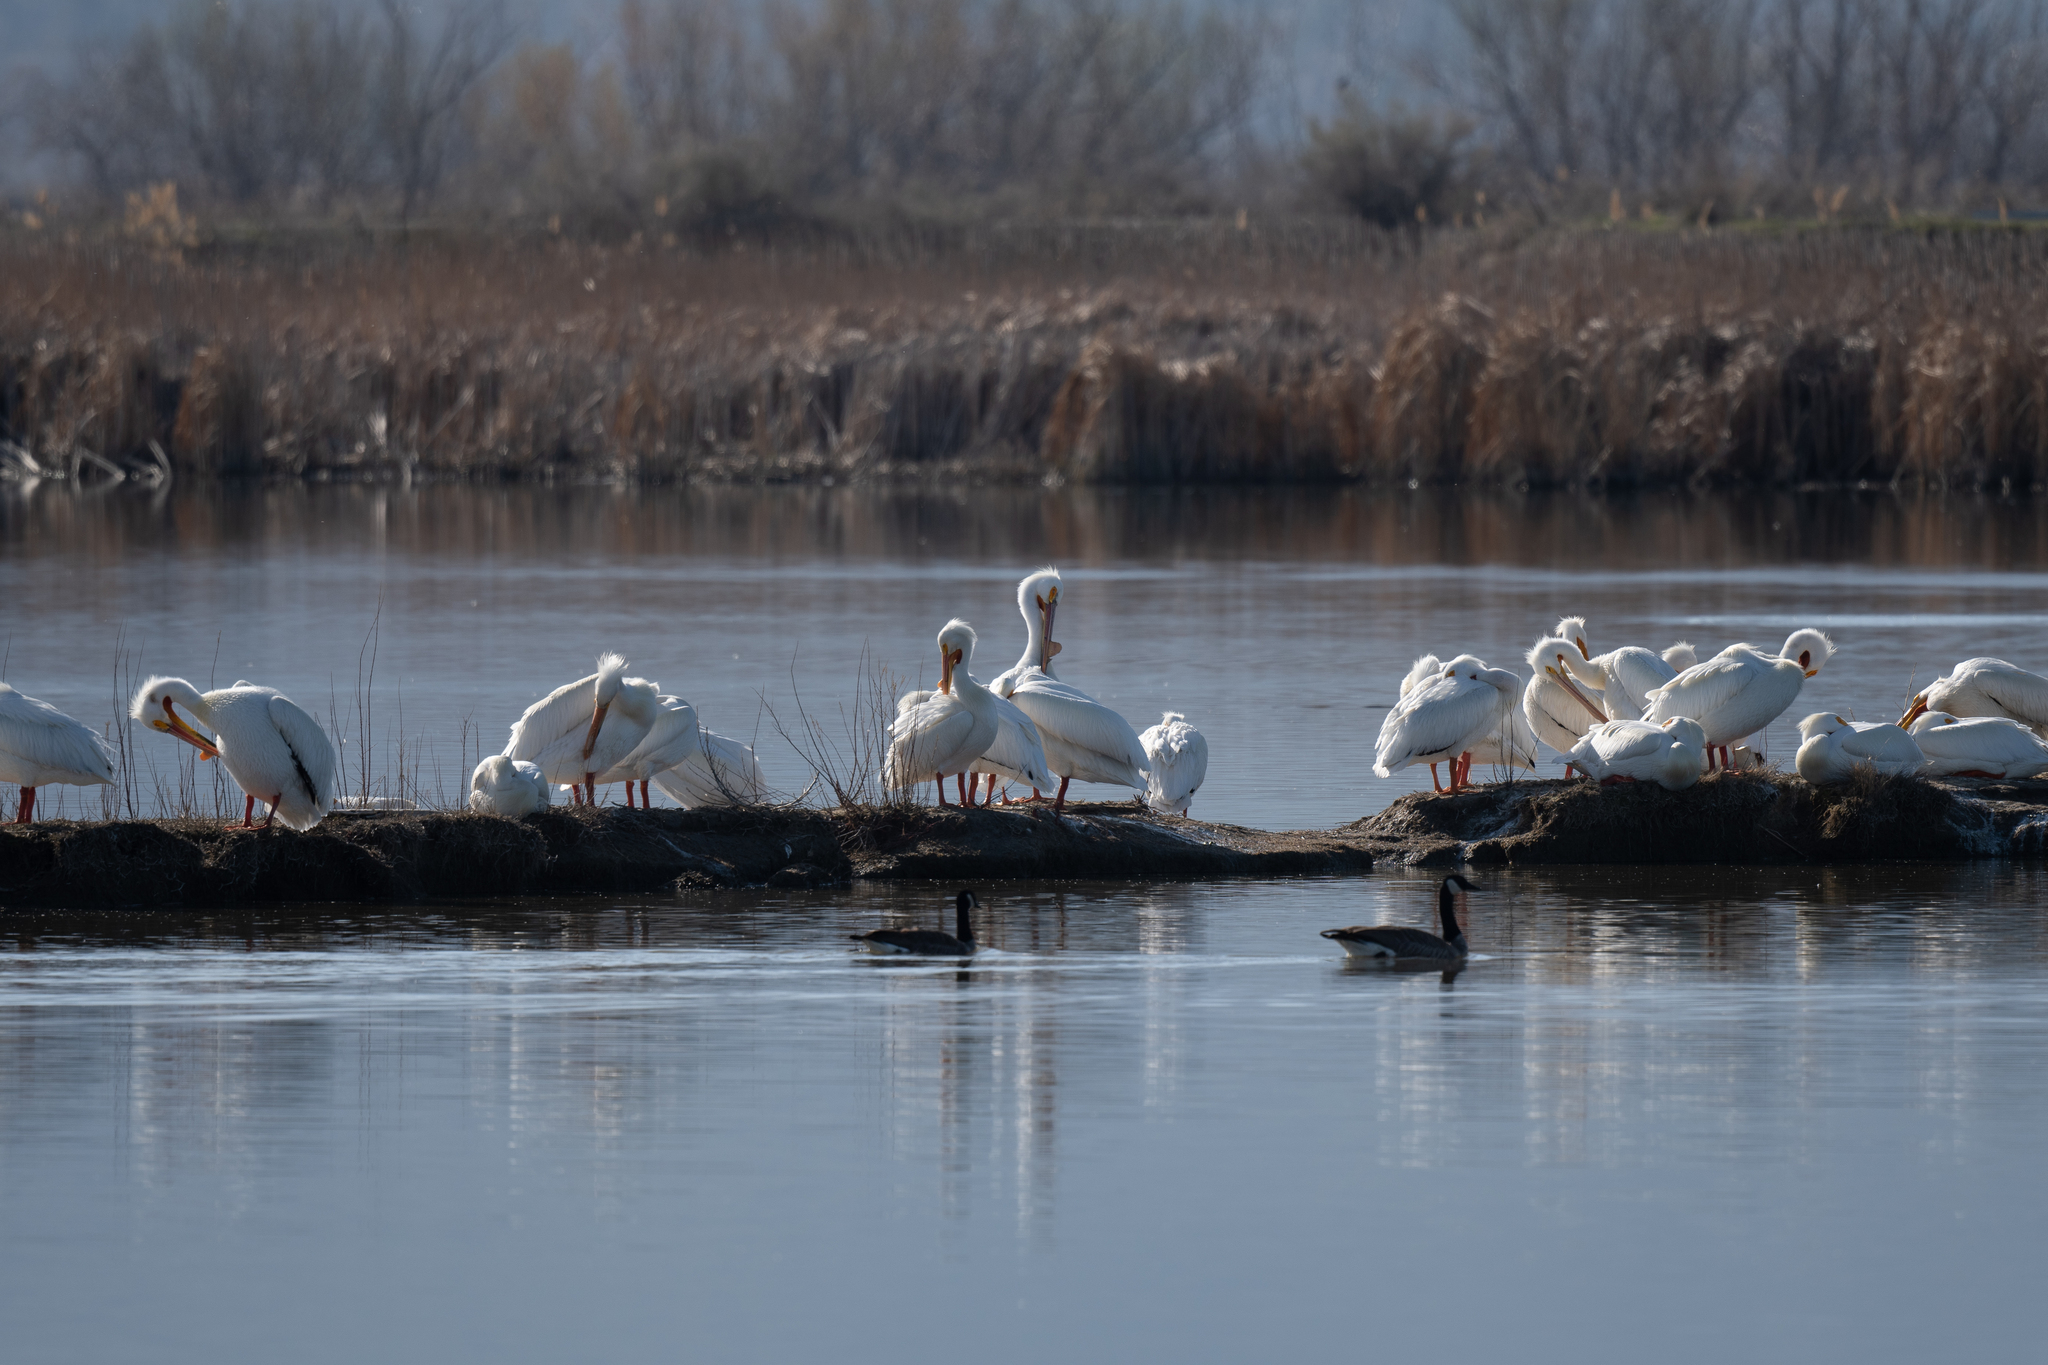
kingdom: Animalia
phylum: Chordata
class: Aves
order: Pelecaniformes
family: Pelecanidae
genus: Pelecanus
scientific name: Pelecanus erythrorhynchos
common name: American white pelican
